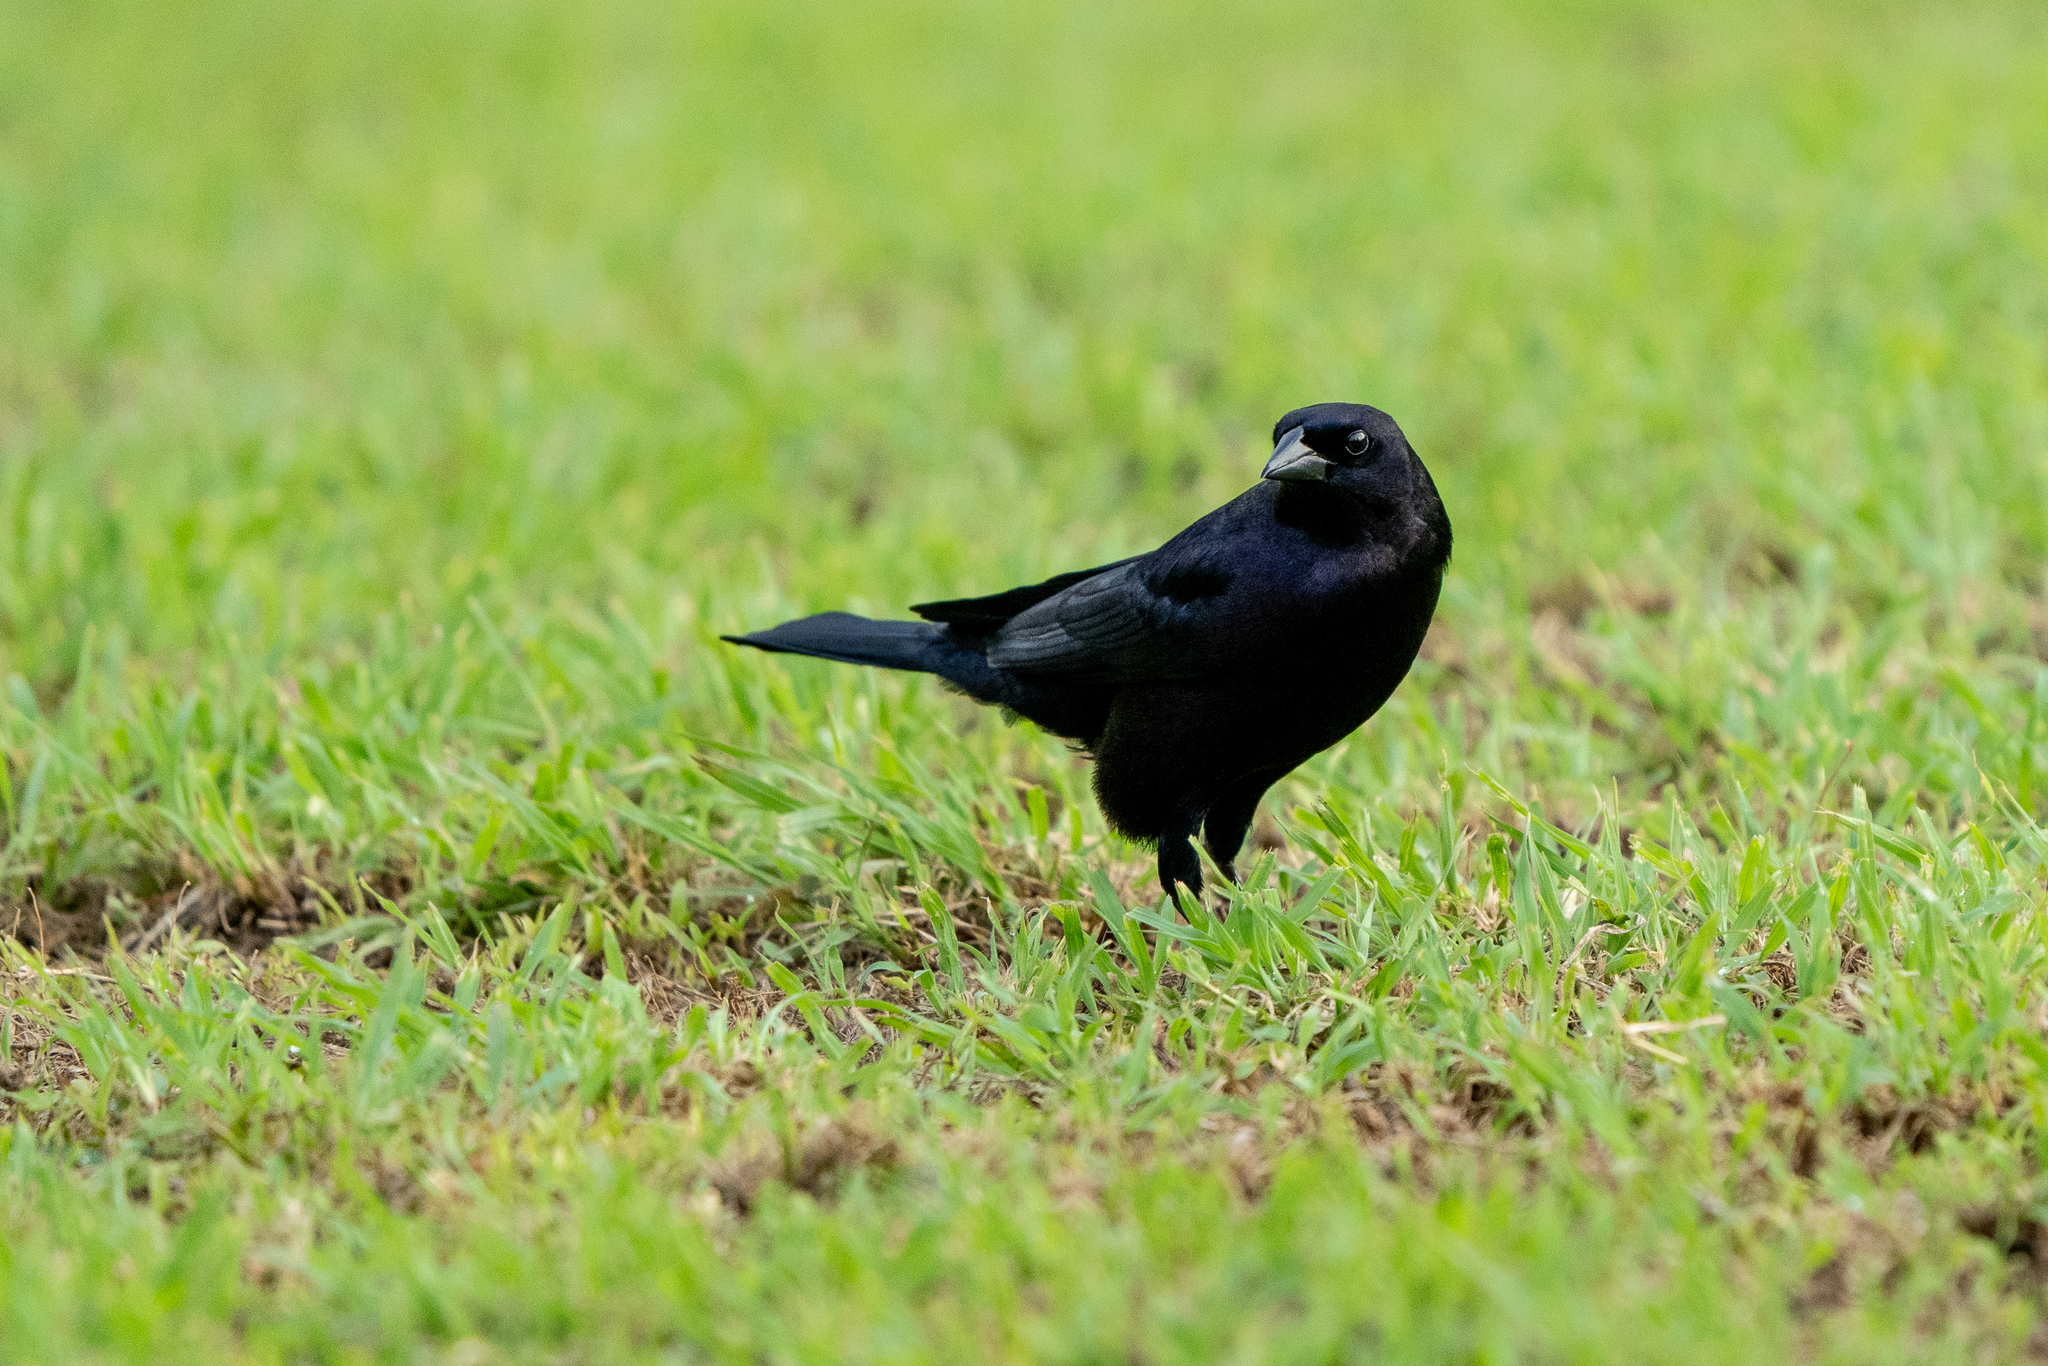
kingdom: Animalia
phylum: Chordata
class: Aves
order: Passeriformes
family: Icteridae
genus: Molothrus
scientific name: Molothrus bonariensis
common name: Shiny cowbird
